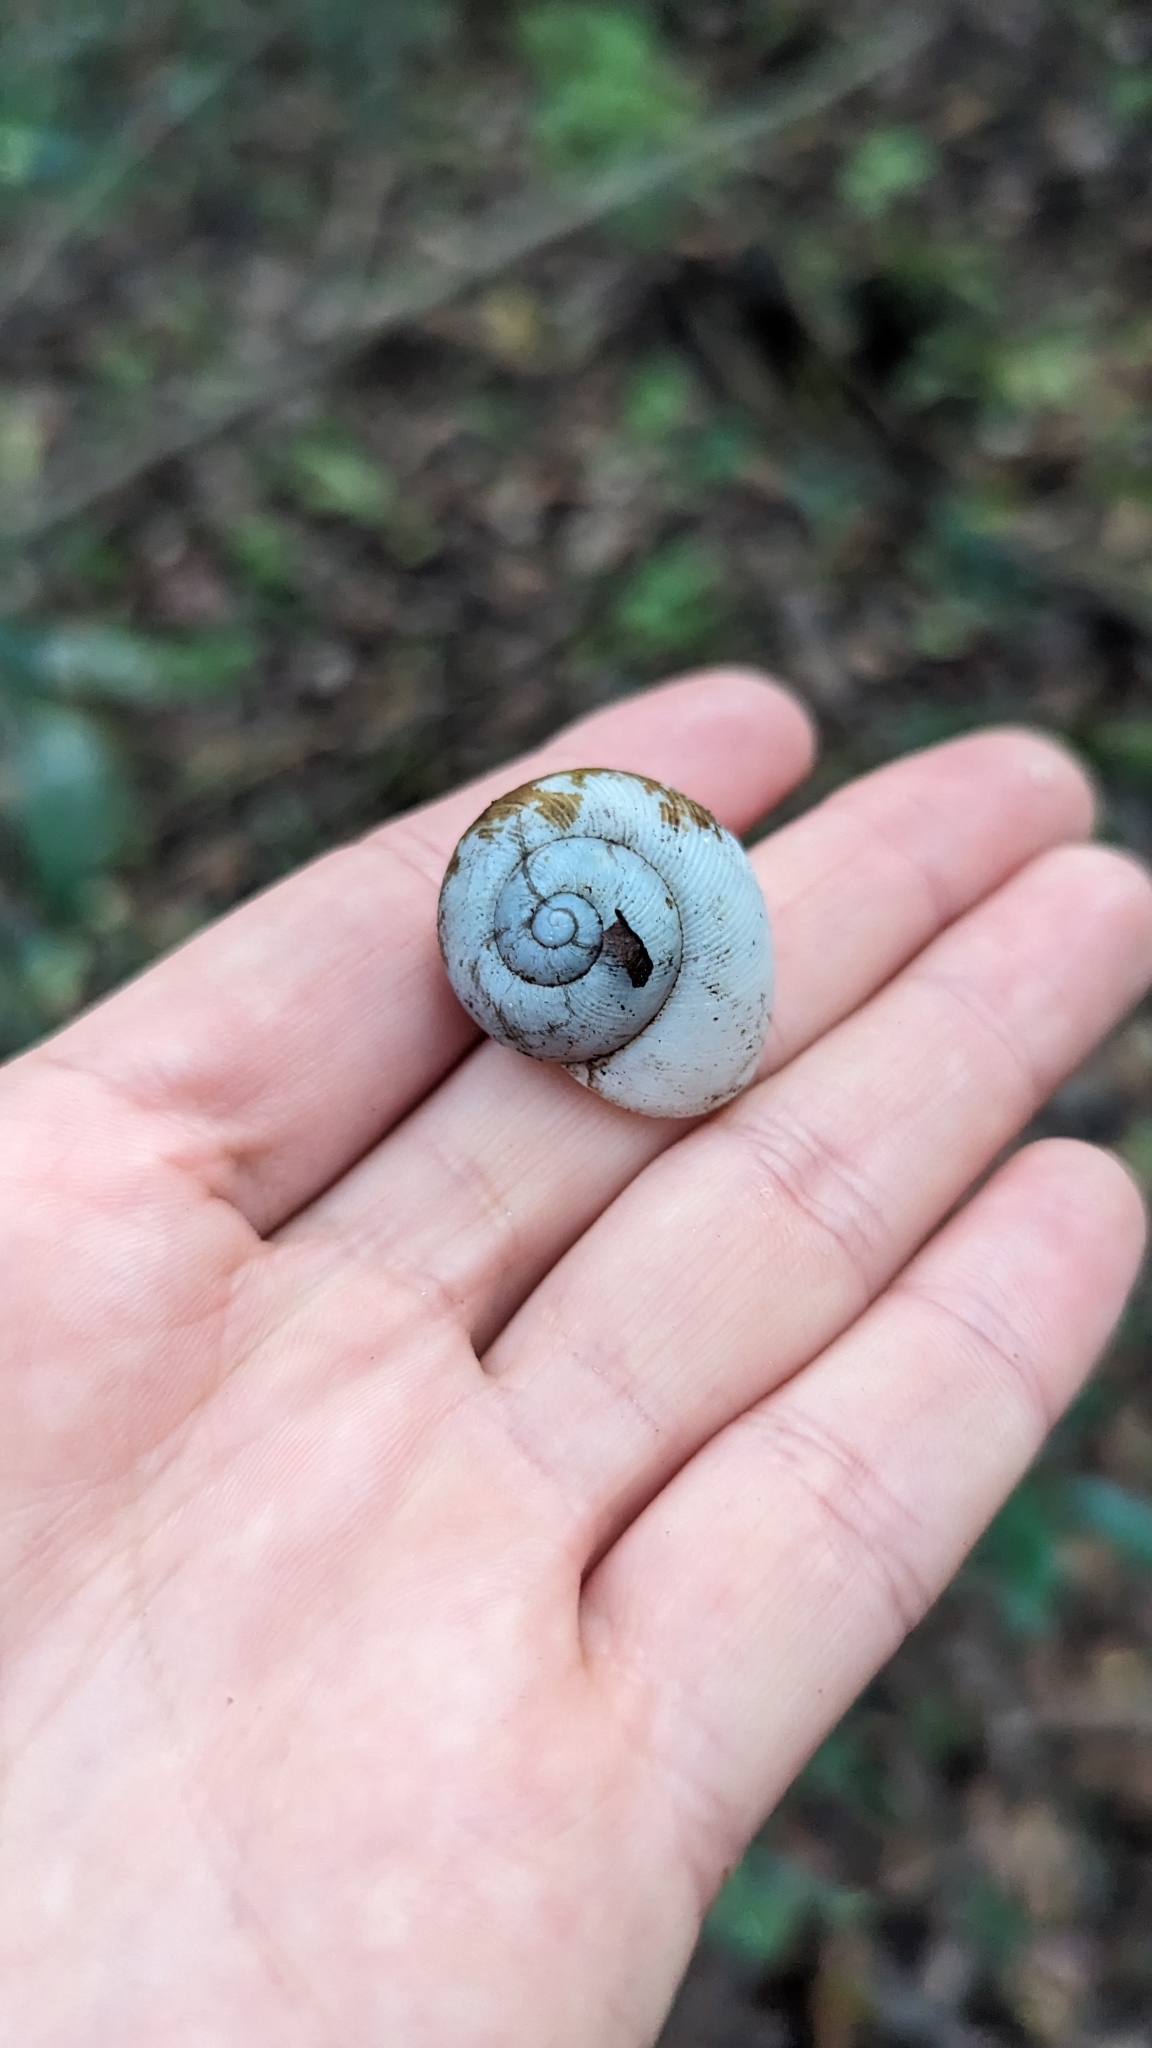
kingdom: Animalia
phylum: Mollusca
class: Gastropoda
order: Stylommatophora
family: Zachrysiidae
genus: Zachrysia
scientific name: Zachrysia provisoria
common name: Garden zachrysia
